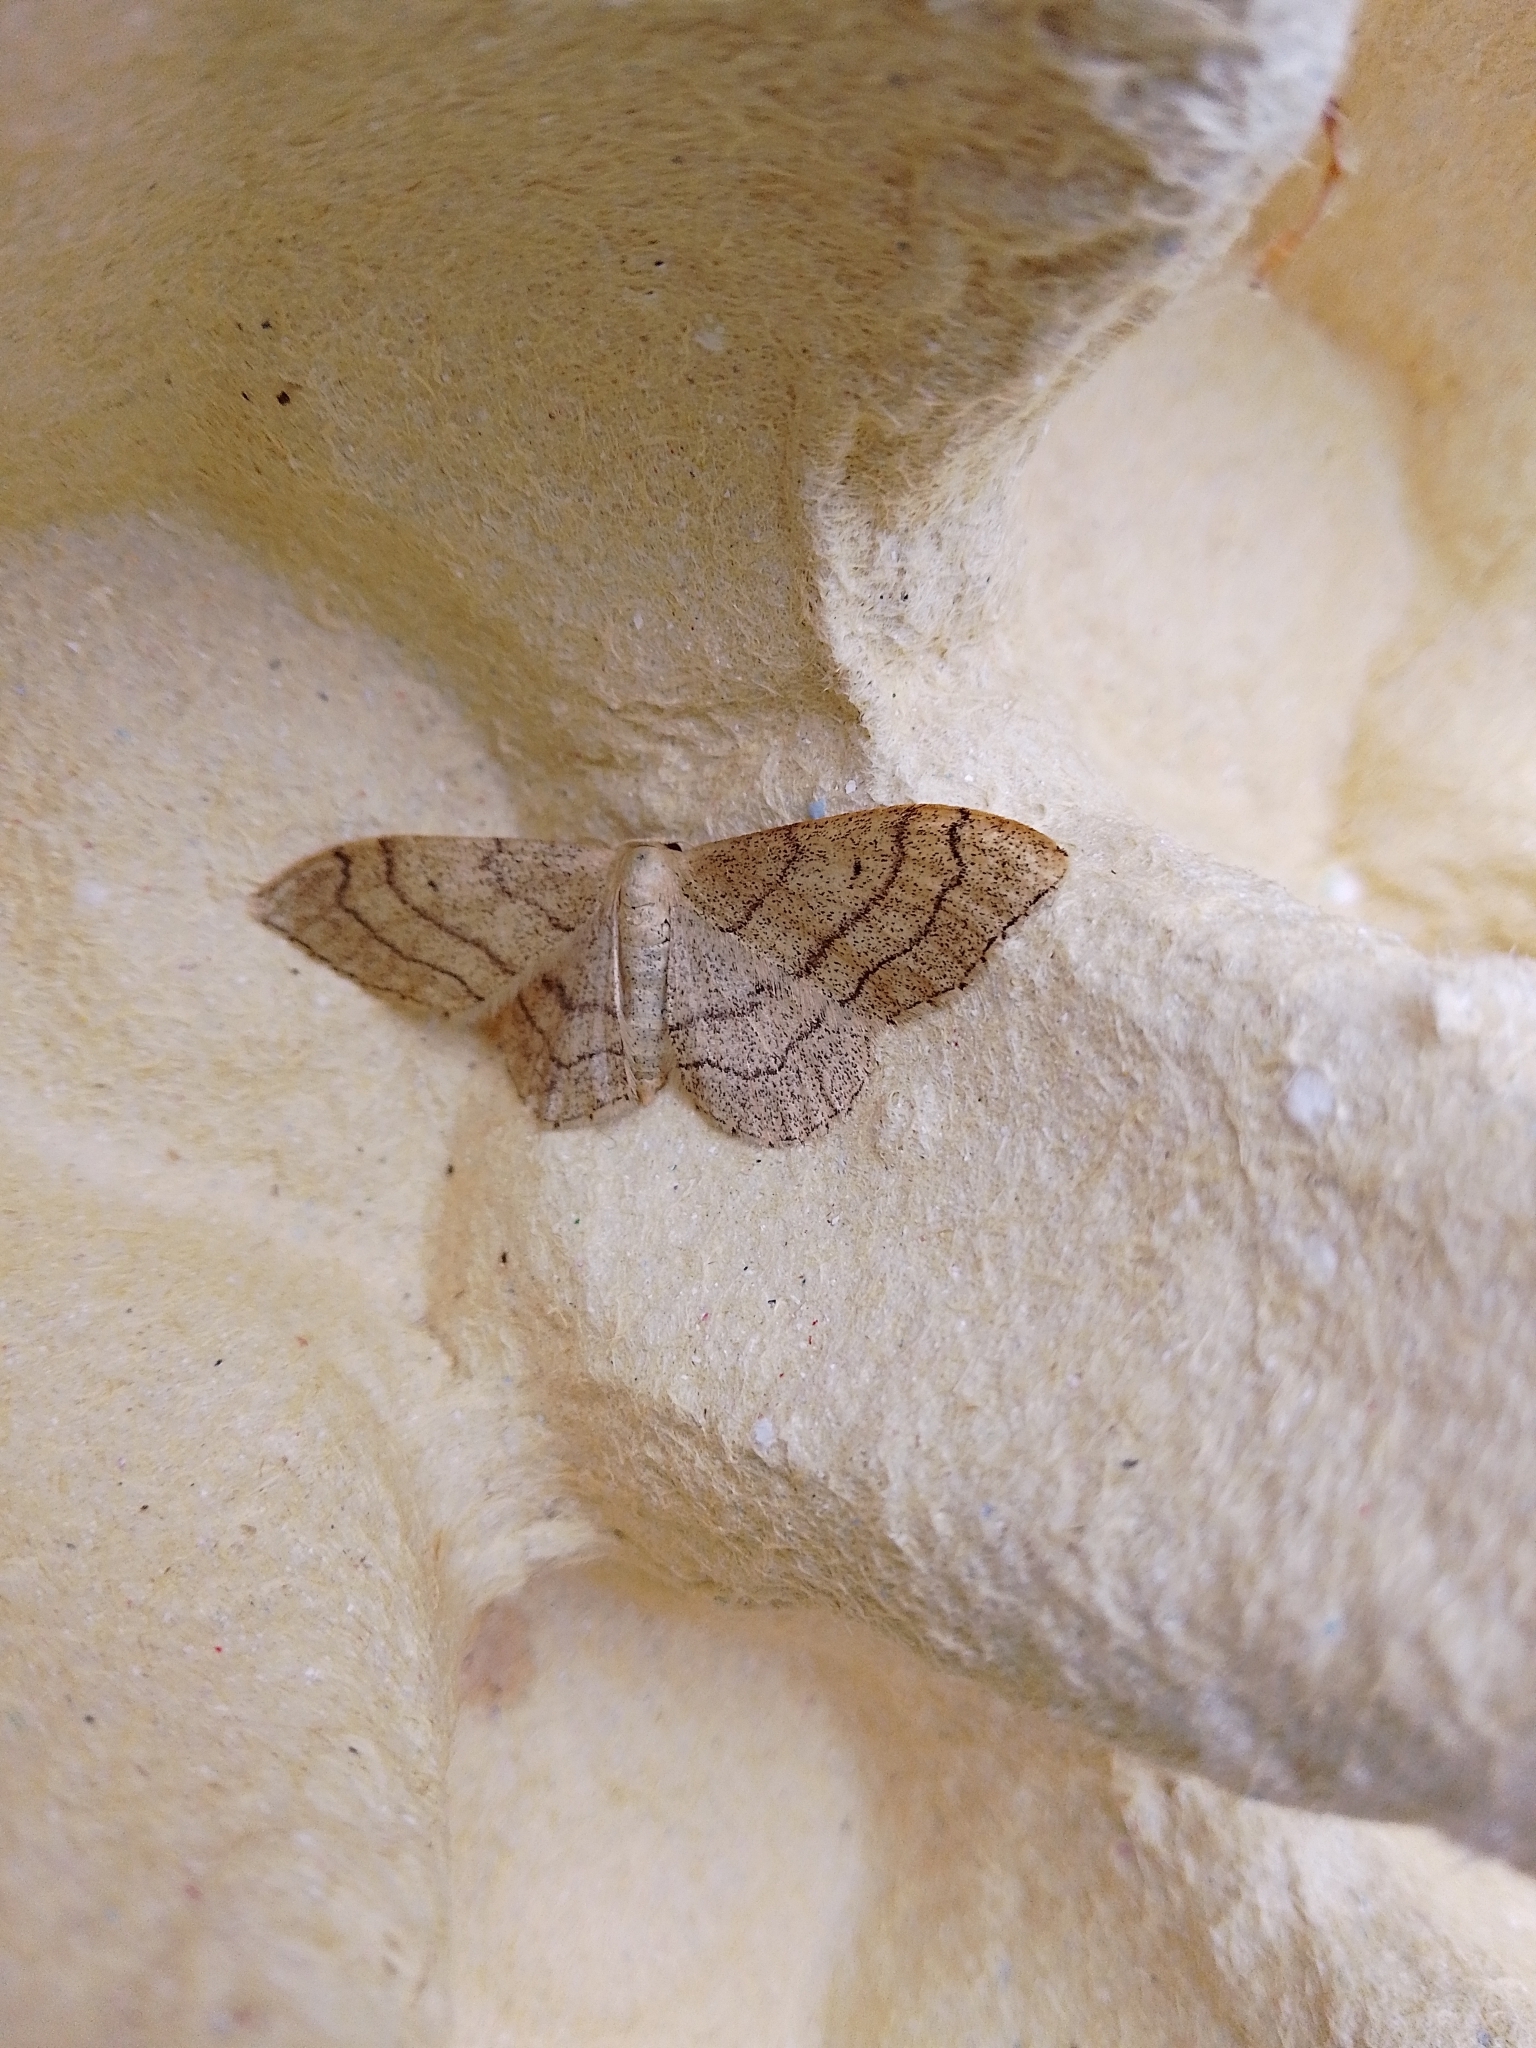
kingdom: Animalia
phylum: Arthropoda
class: Insecta
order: Lepidoptera
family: Geometridae
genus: Idaea
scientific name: Idaea aversata
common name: Riband wave
